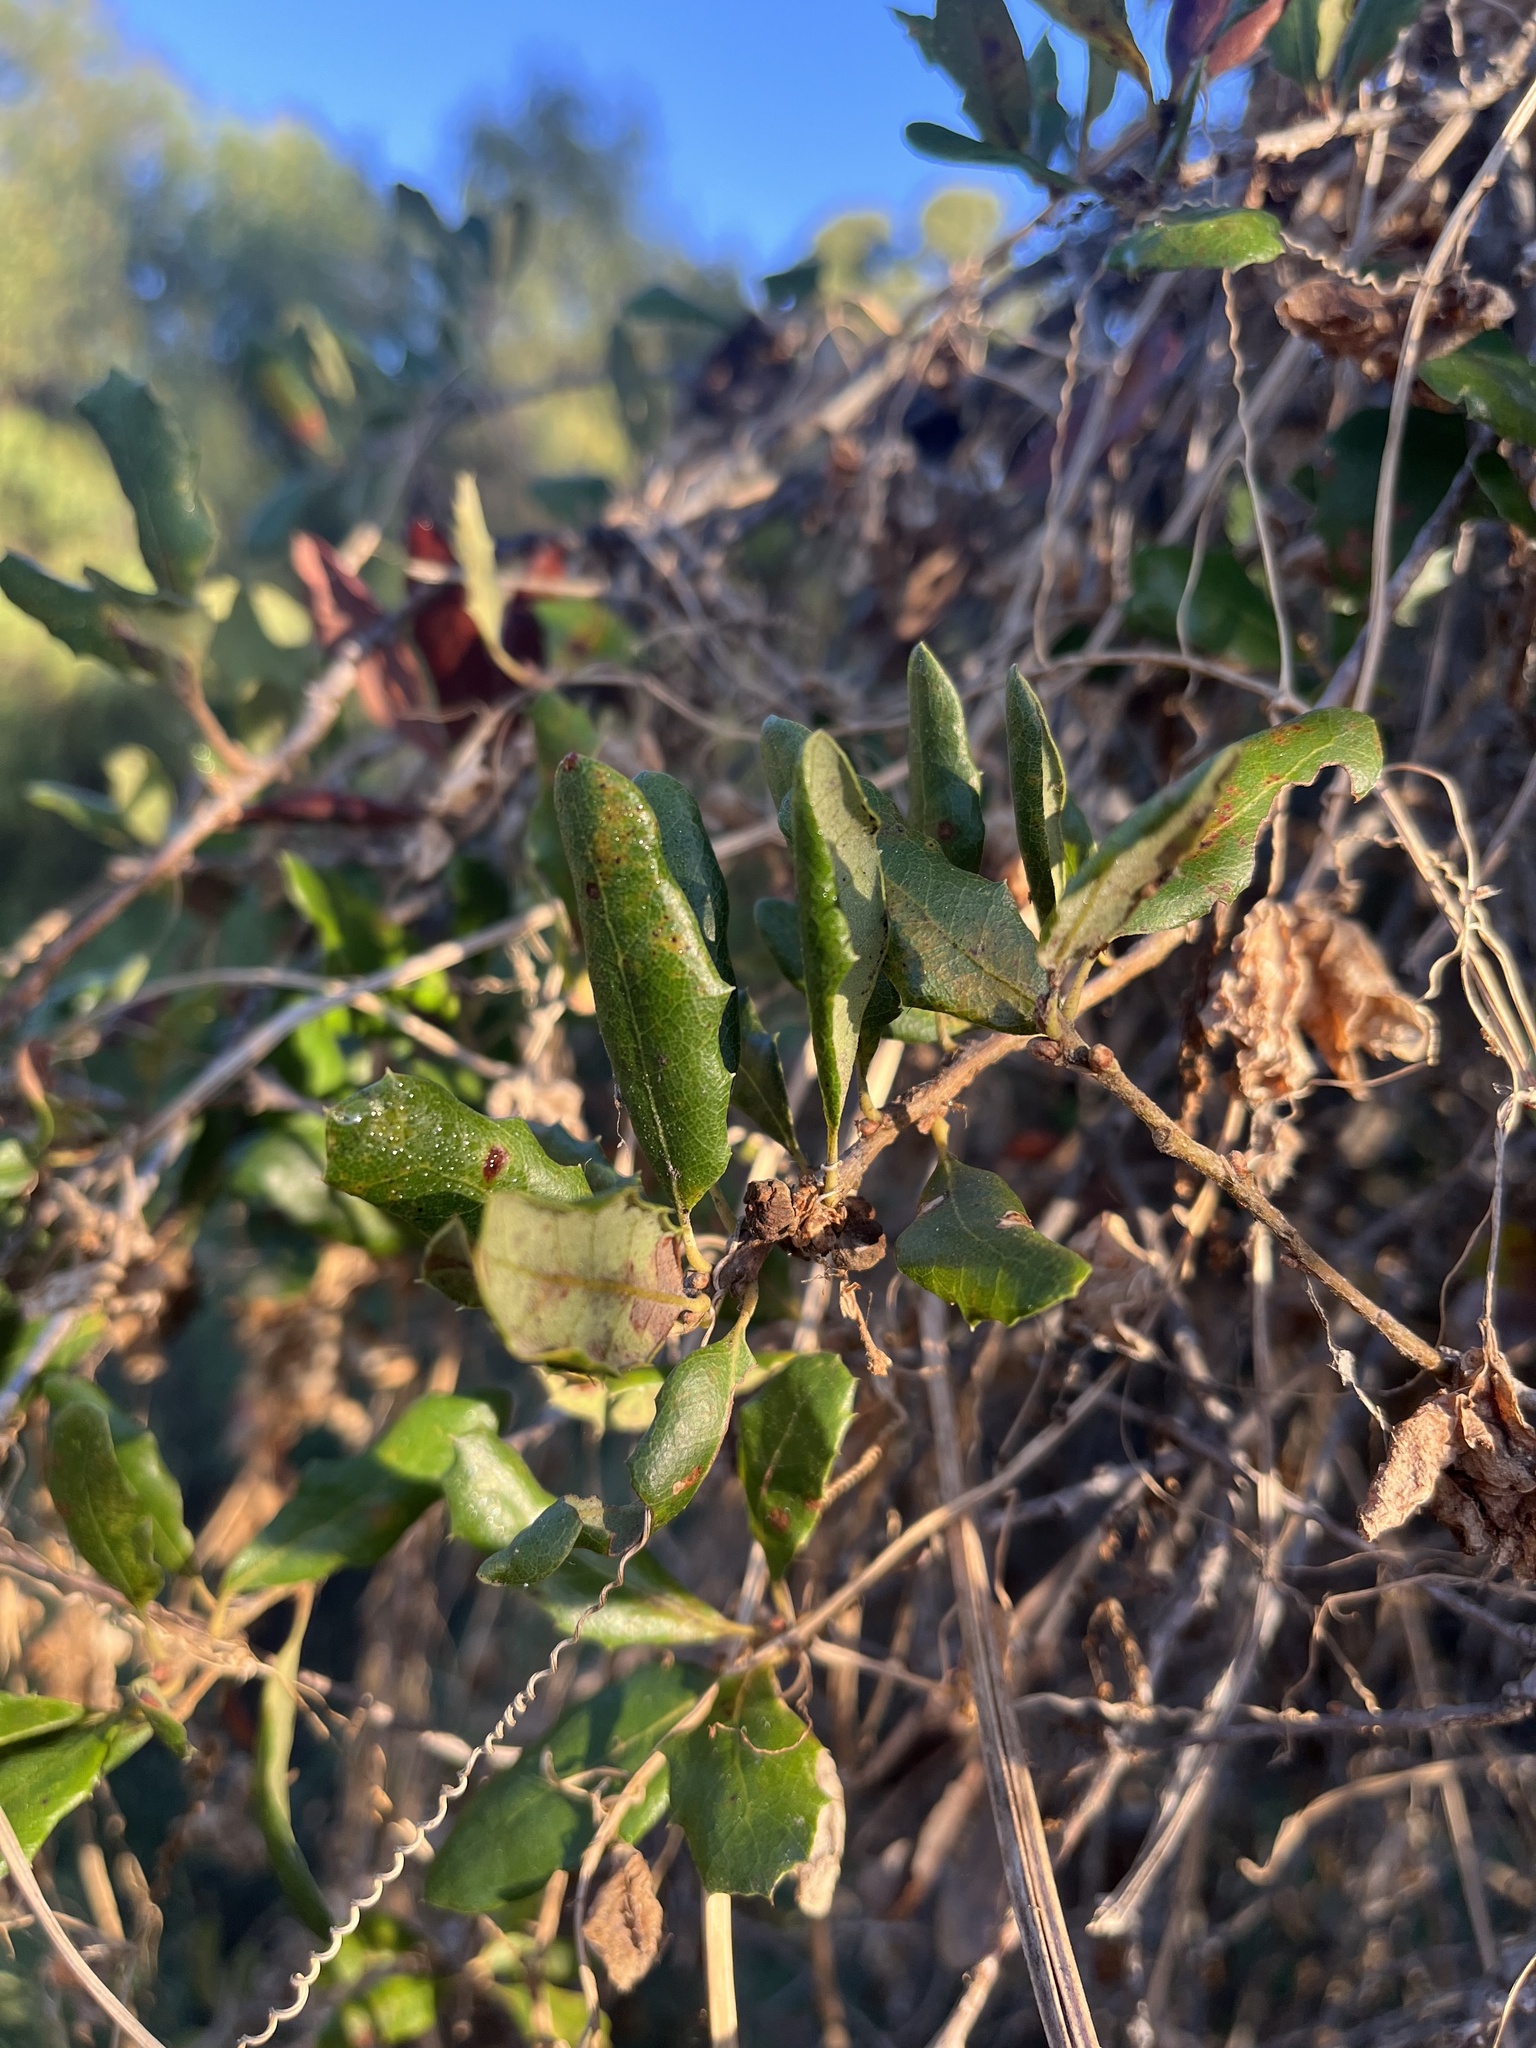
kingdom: Plantae
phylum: Tracheophyta
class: Magnoliopsida
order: Fagales
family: Fagaceae
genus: Quercus
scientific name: Quercus acutidens
